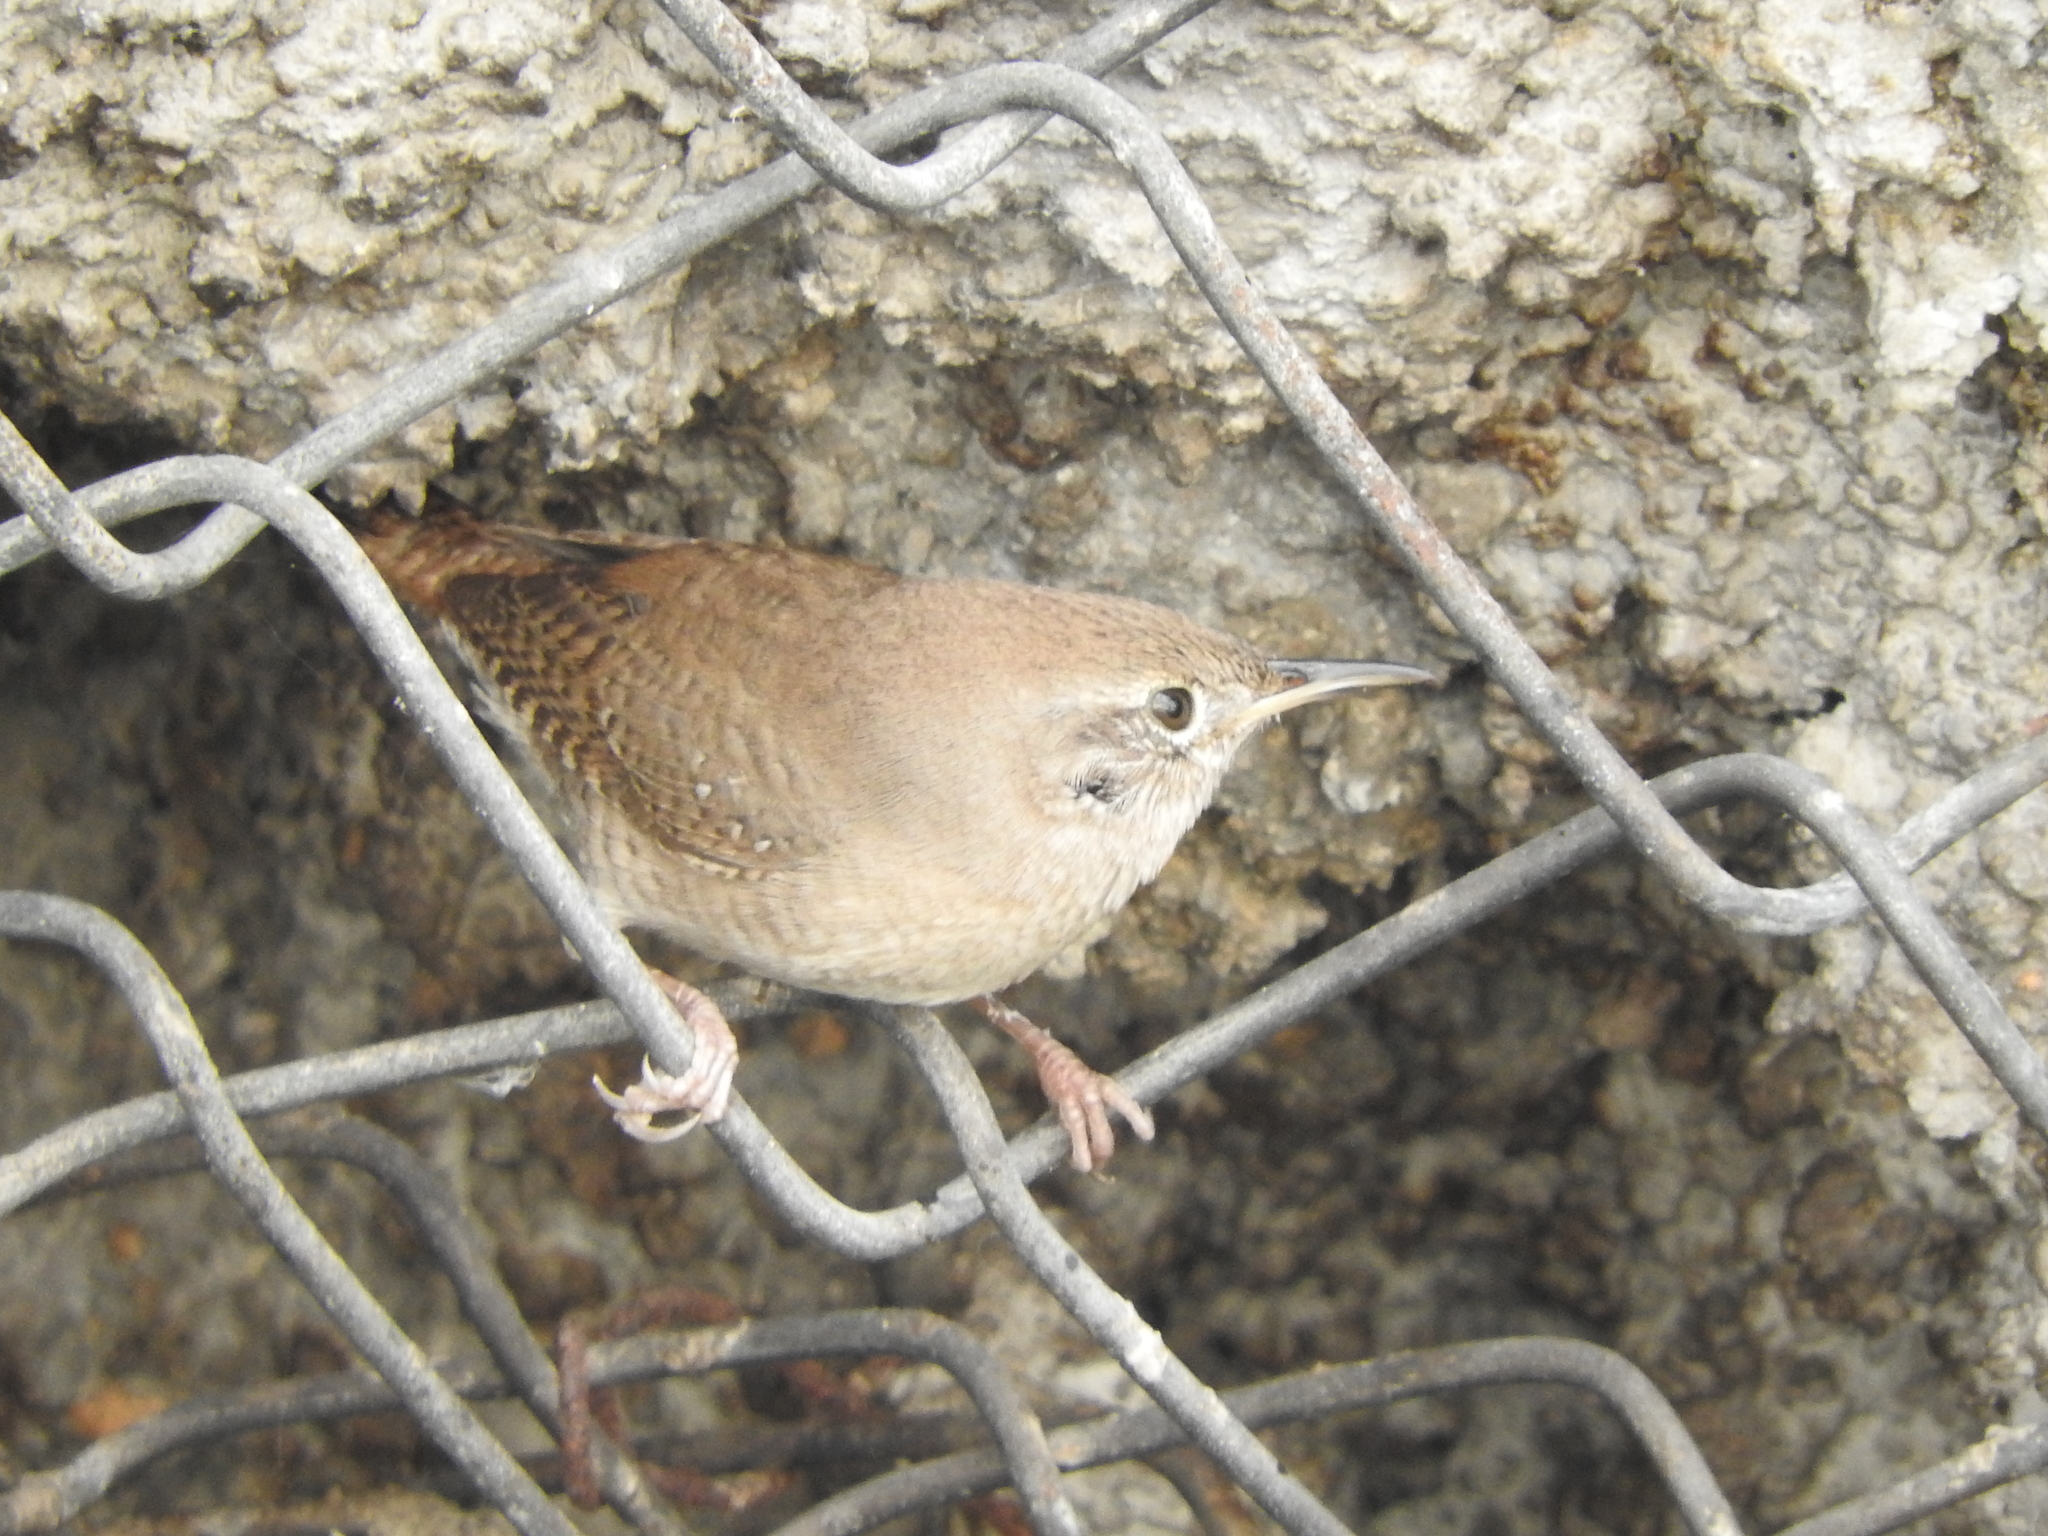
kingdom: Animalia
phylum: Chordata
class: Aves
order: Passeriformes
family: Troglodytidae
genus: Troglodytes
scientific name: Troglodytes aedon
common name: House wren
